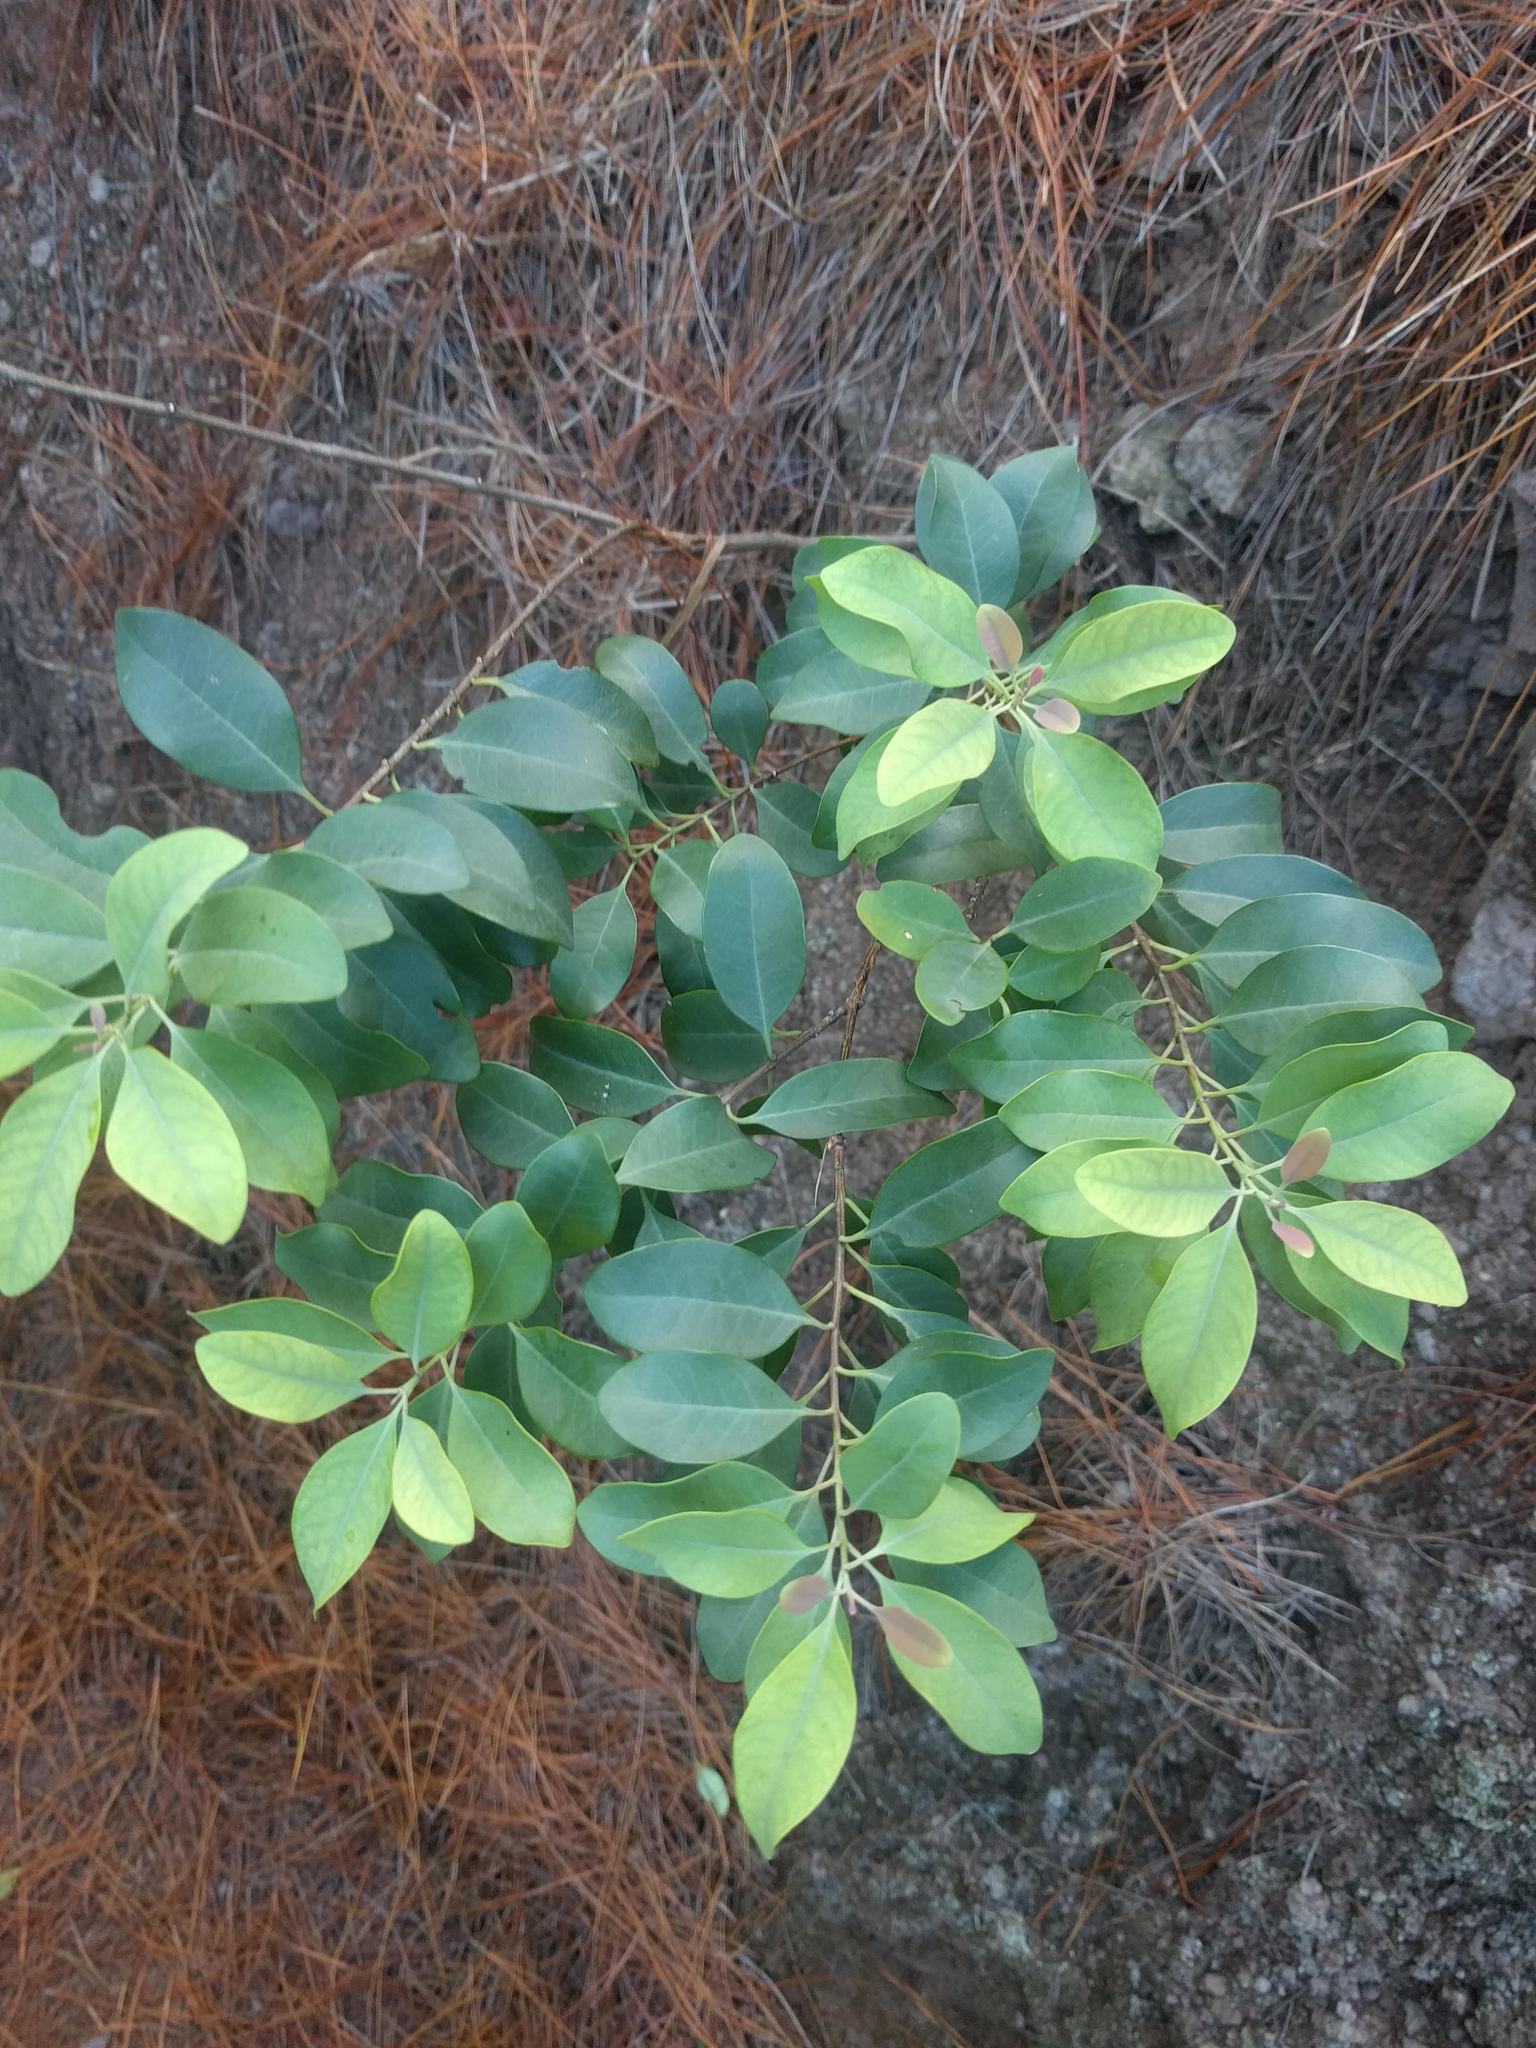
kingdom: Plantae
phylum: Tracheophyta
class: Magnoliopsida
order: Santalales
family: Santalaceae
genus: Santalum
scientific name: Santalum ellipticum
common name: Coast sandalwood
